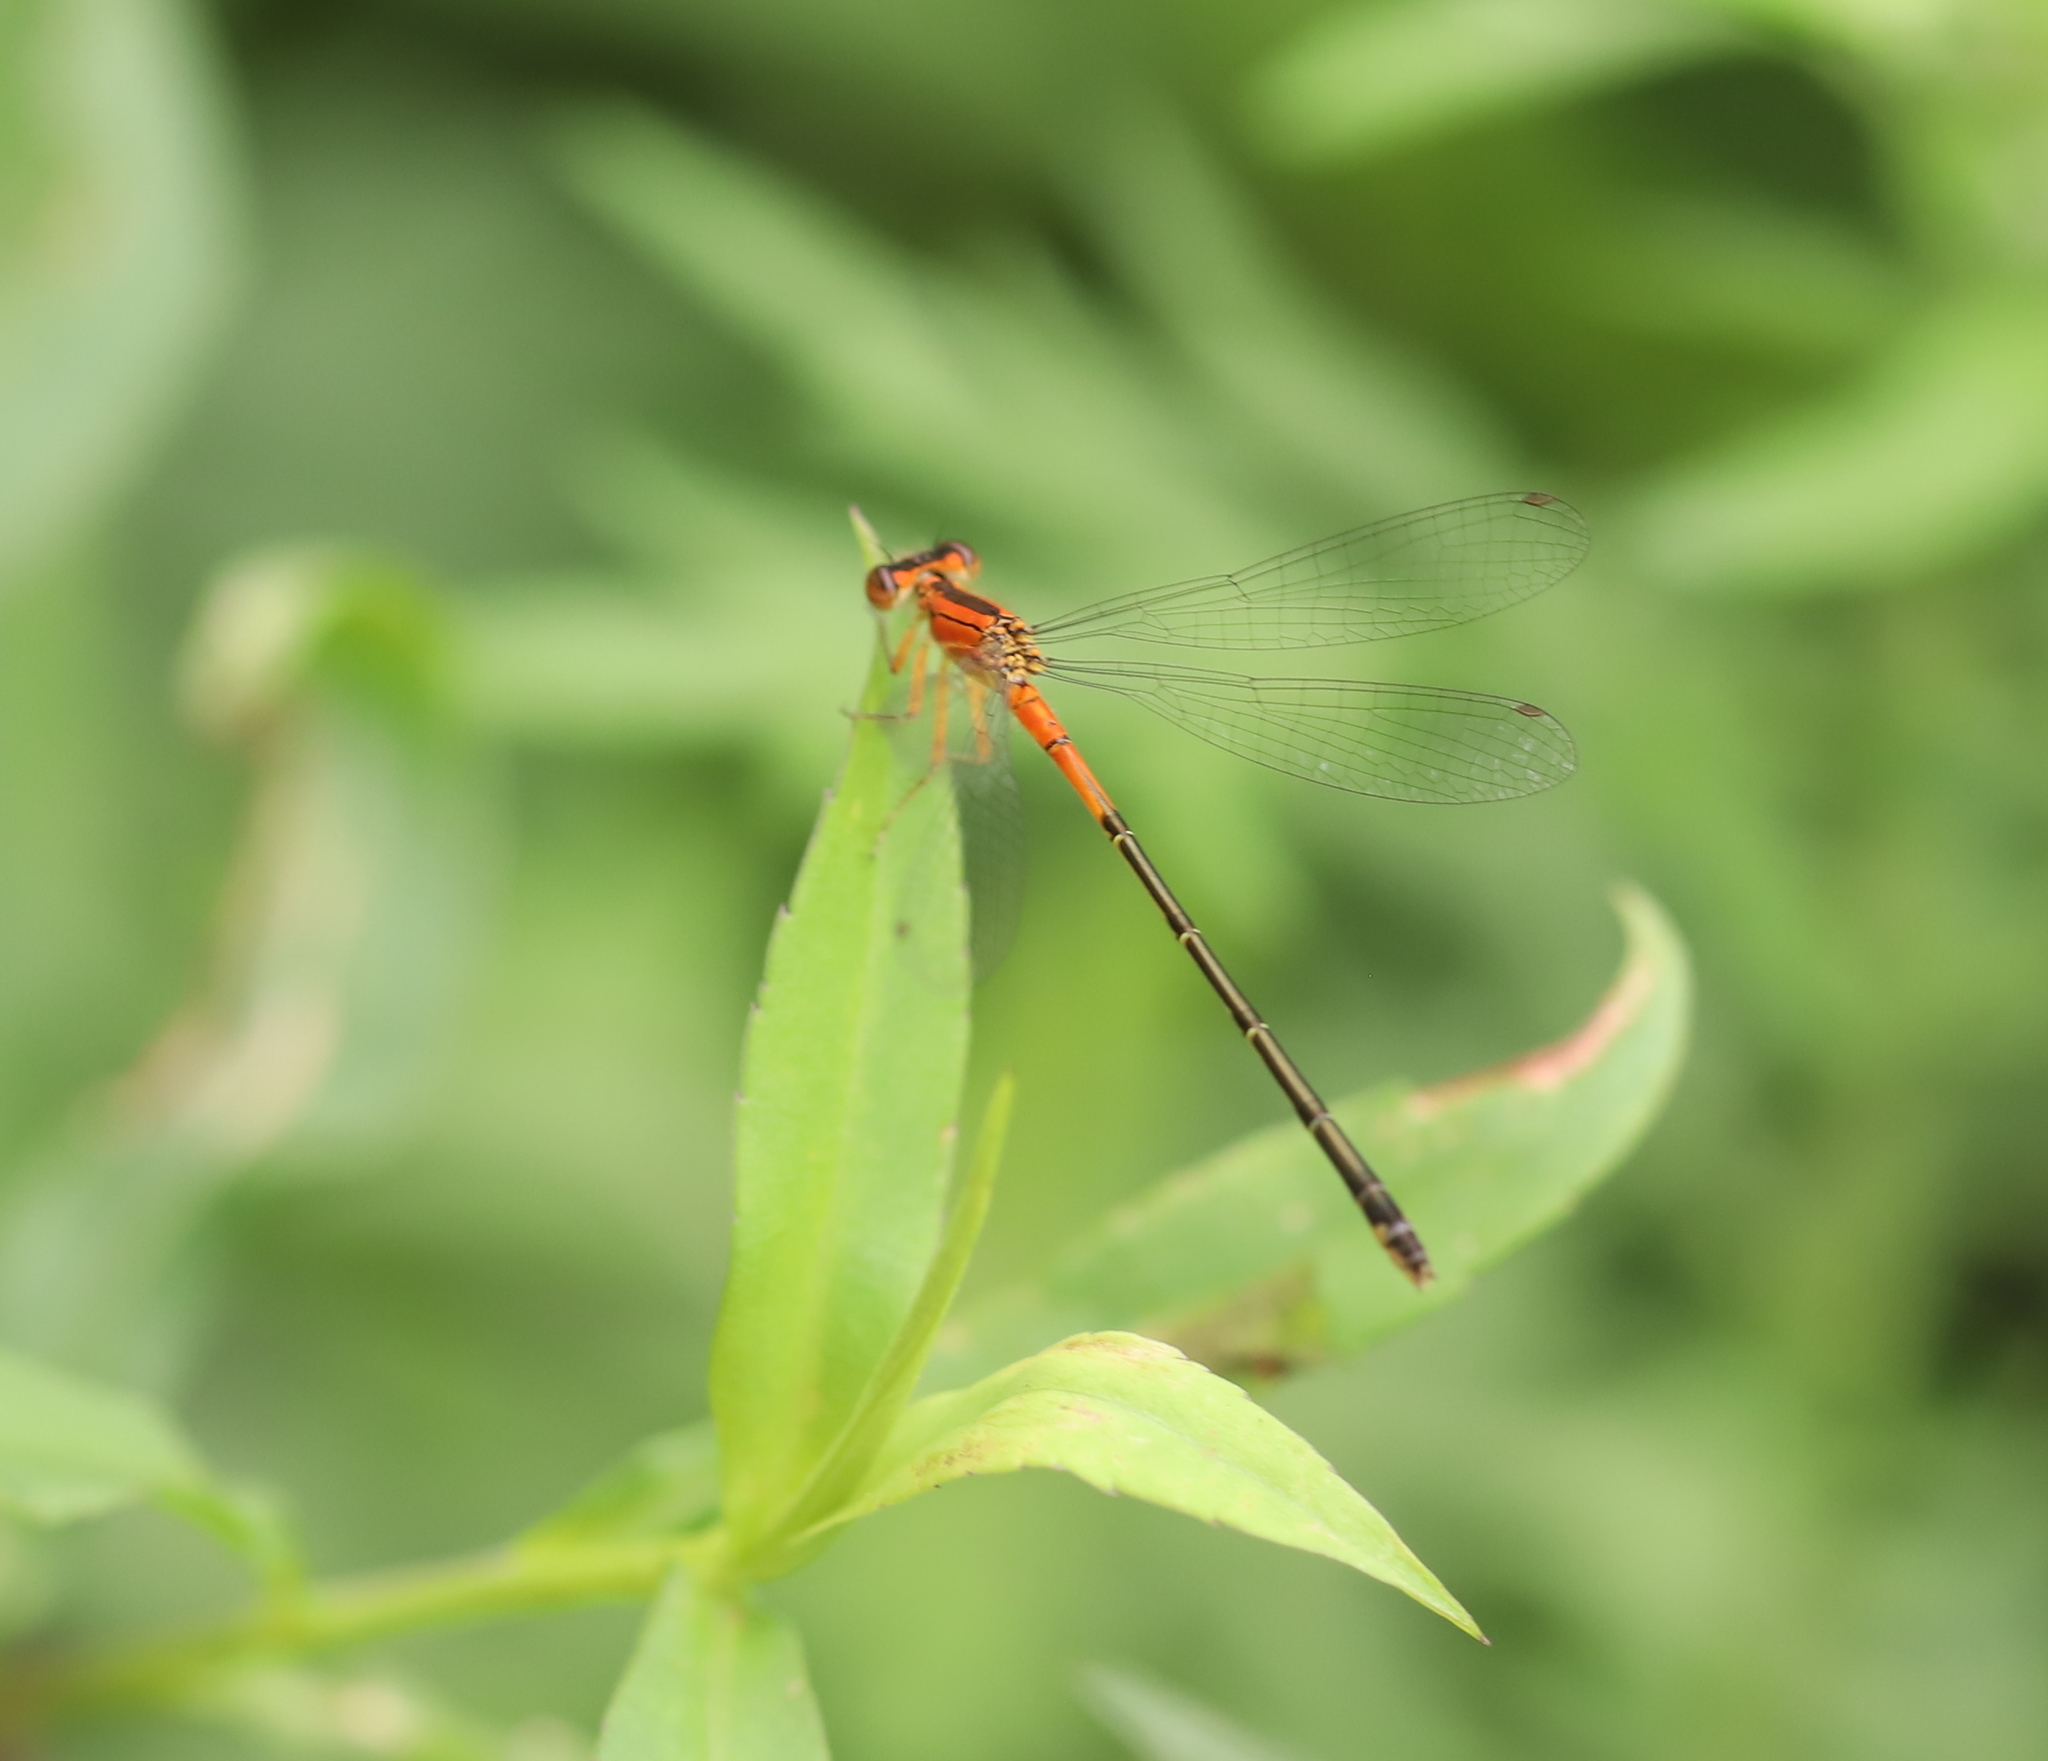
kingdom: Animalia
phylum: Arthropoda
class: Insecta
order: Odonata
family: Coenagrionidae
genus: Ischnura
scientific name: Ischnura verticalis
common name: Eastern forktail
